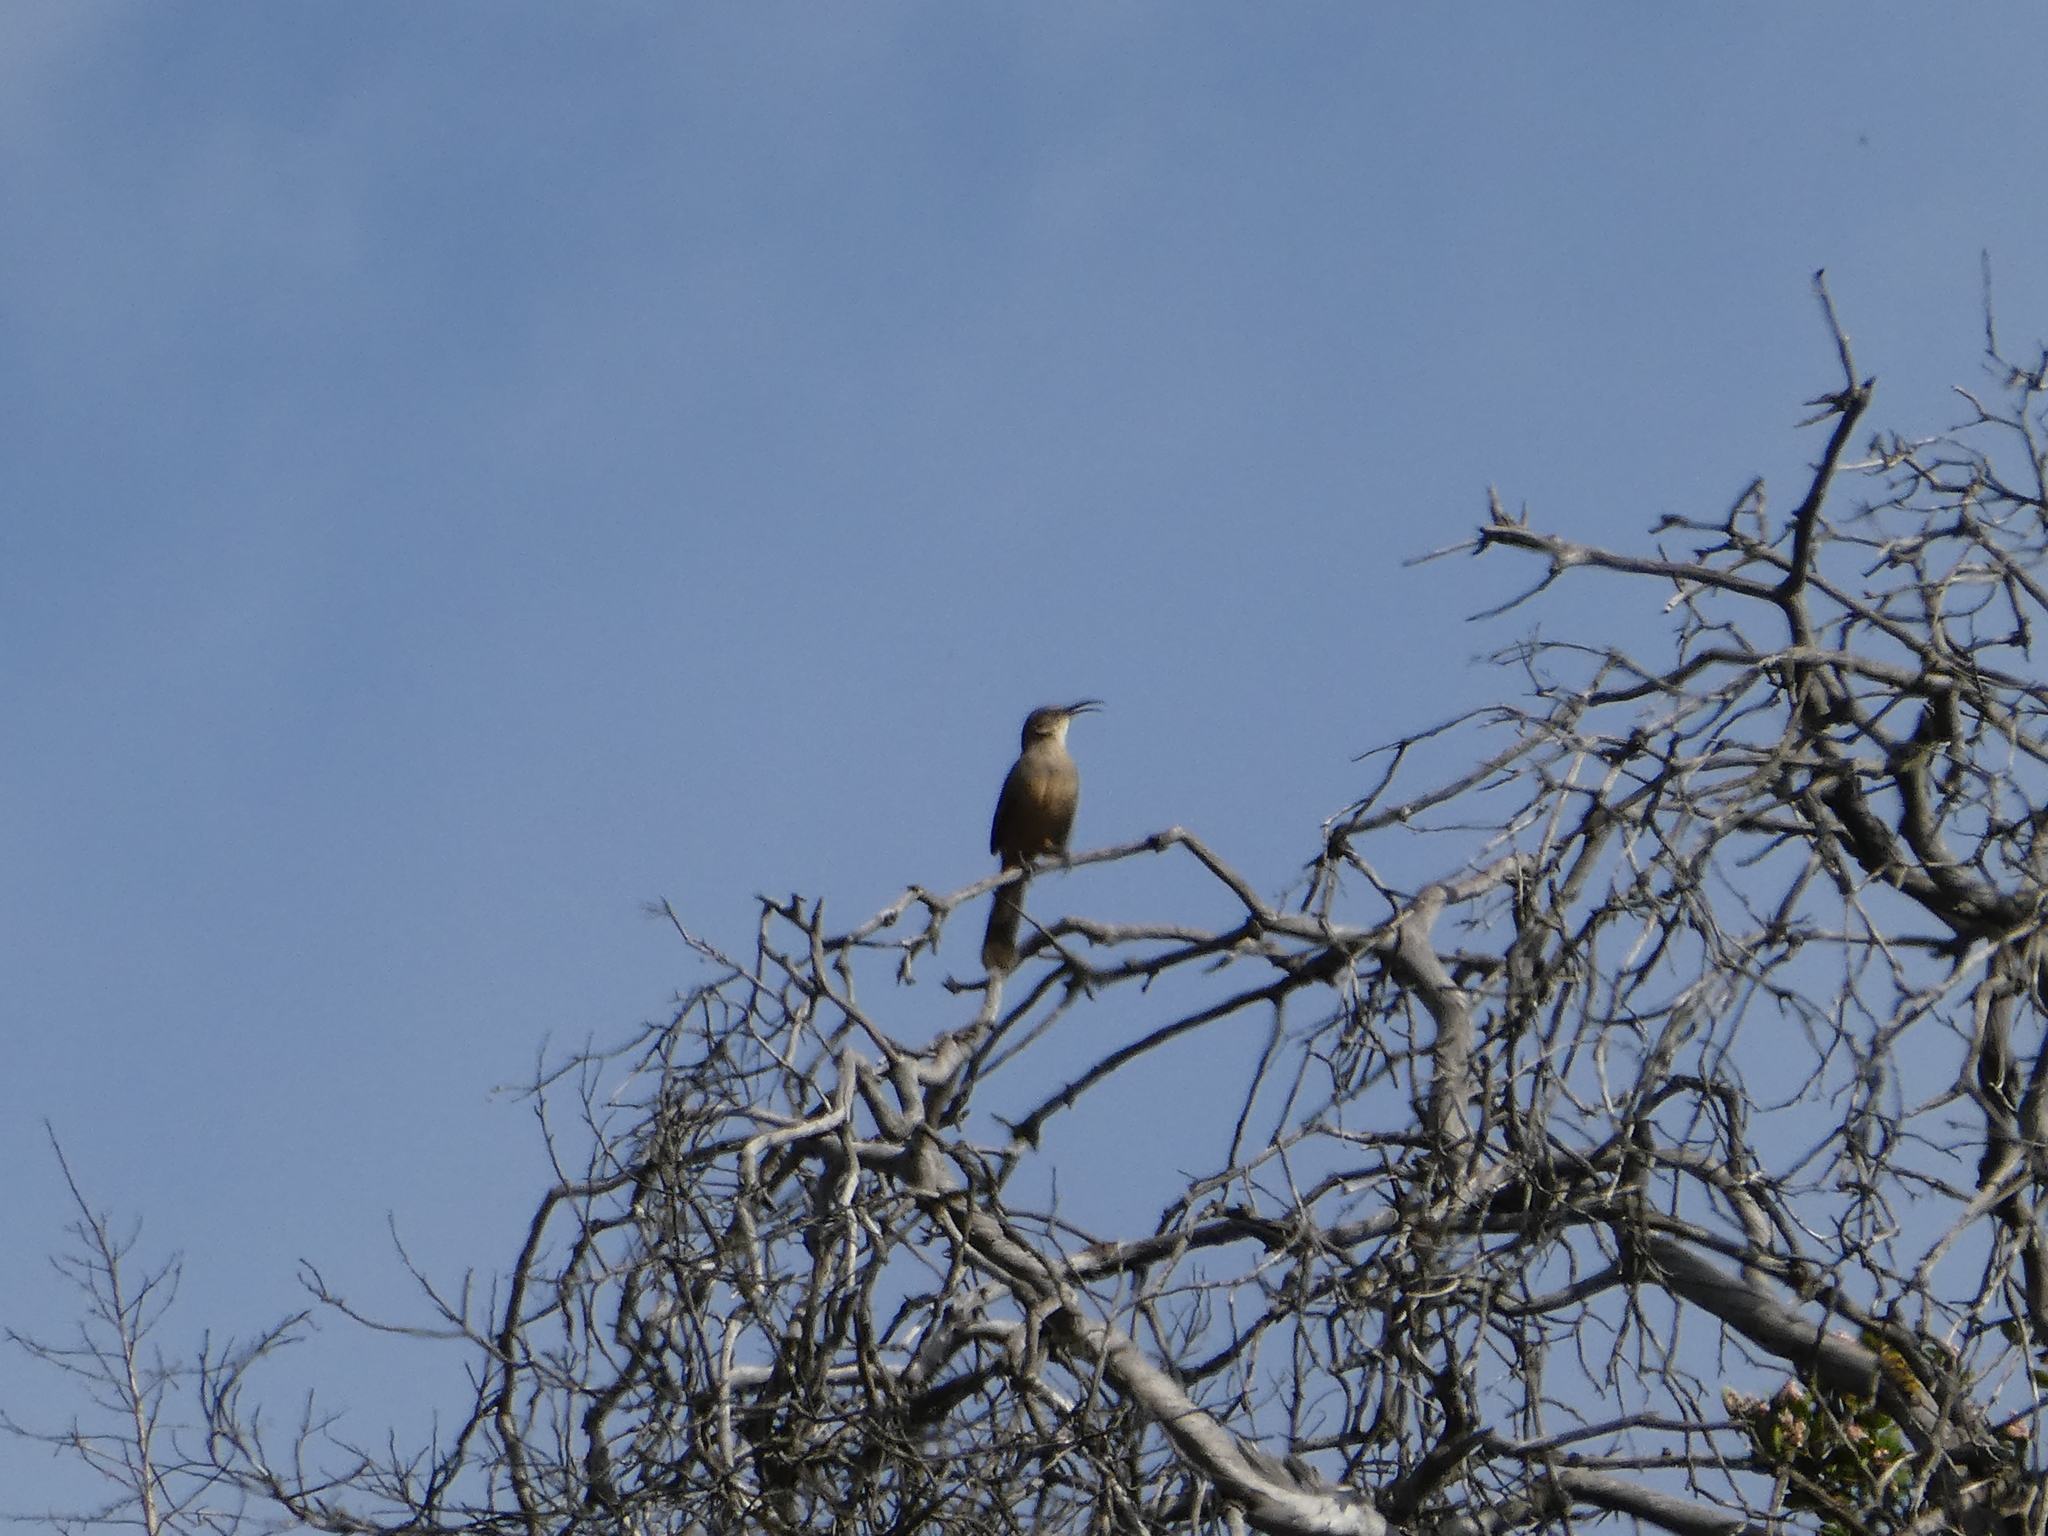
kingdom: Animalia
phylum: Chordata
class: Aves
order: Passeriformes
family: Mimidae
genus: Toxostoma
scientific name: Toxostoma redivivum
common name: California thrasher
